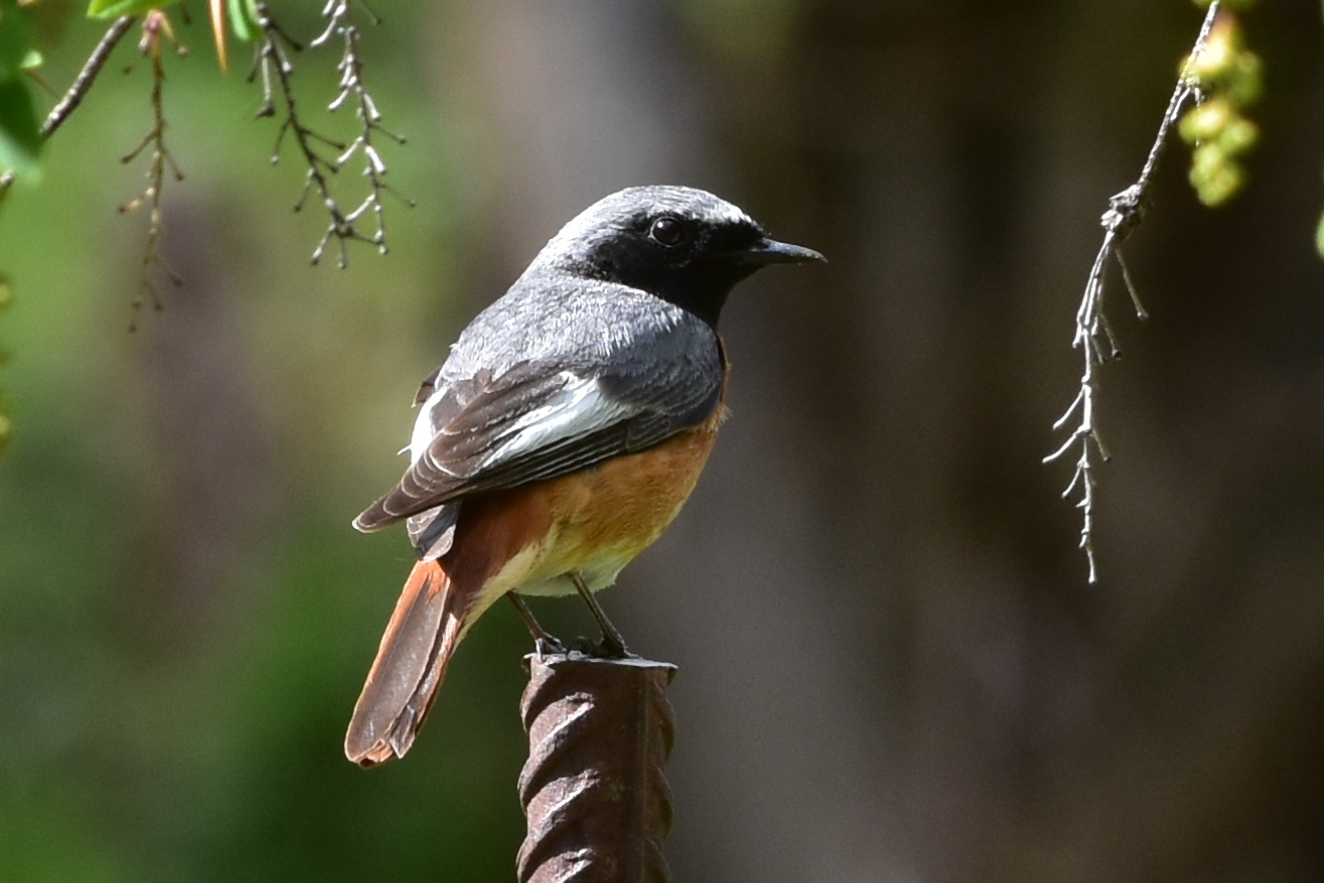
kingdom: Animalia
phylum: Chordata
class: Aves
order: Passeriformes
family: Muscicapidae
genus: Phoenicurus
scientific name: Phoenicurus phoenicurus
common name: Common redstart
